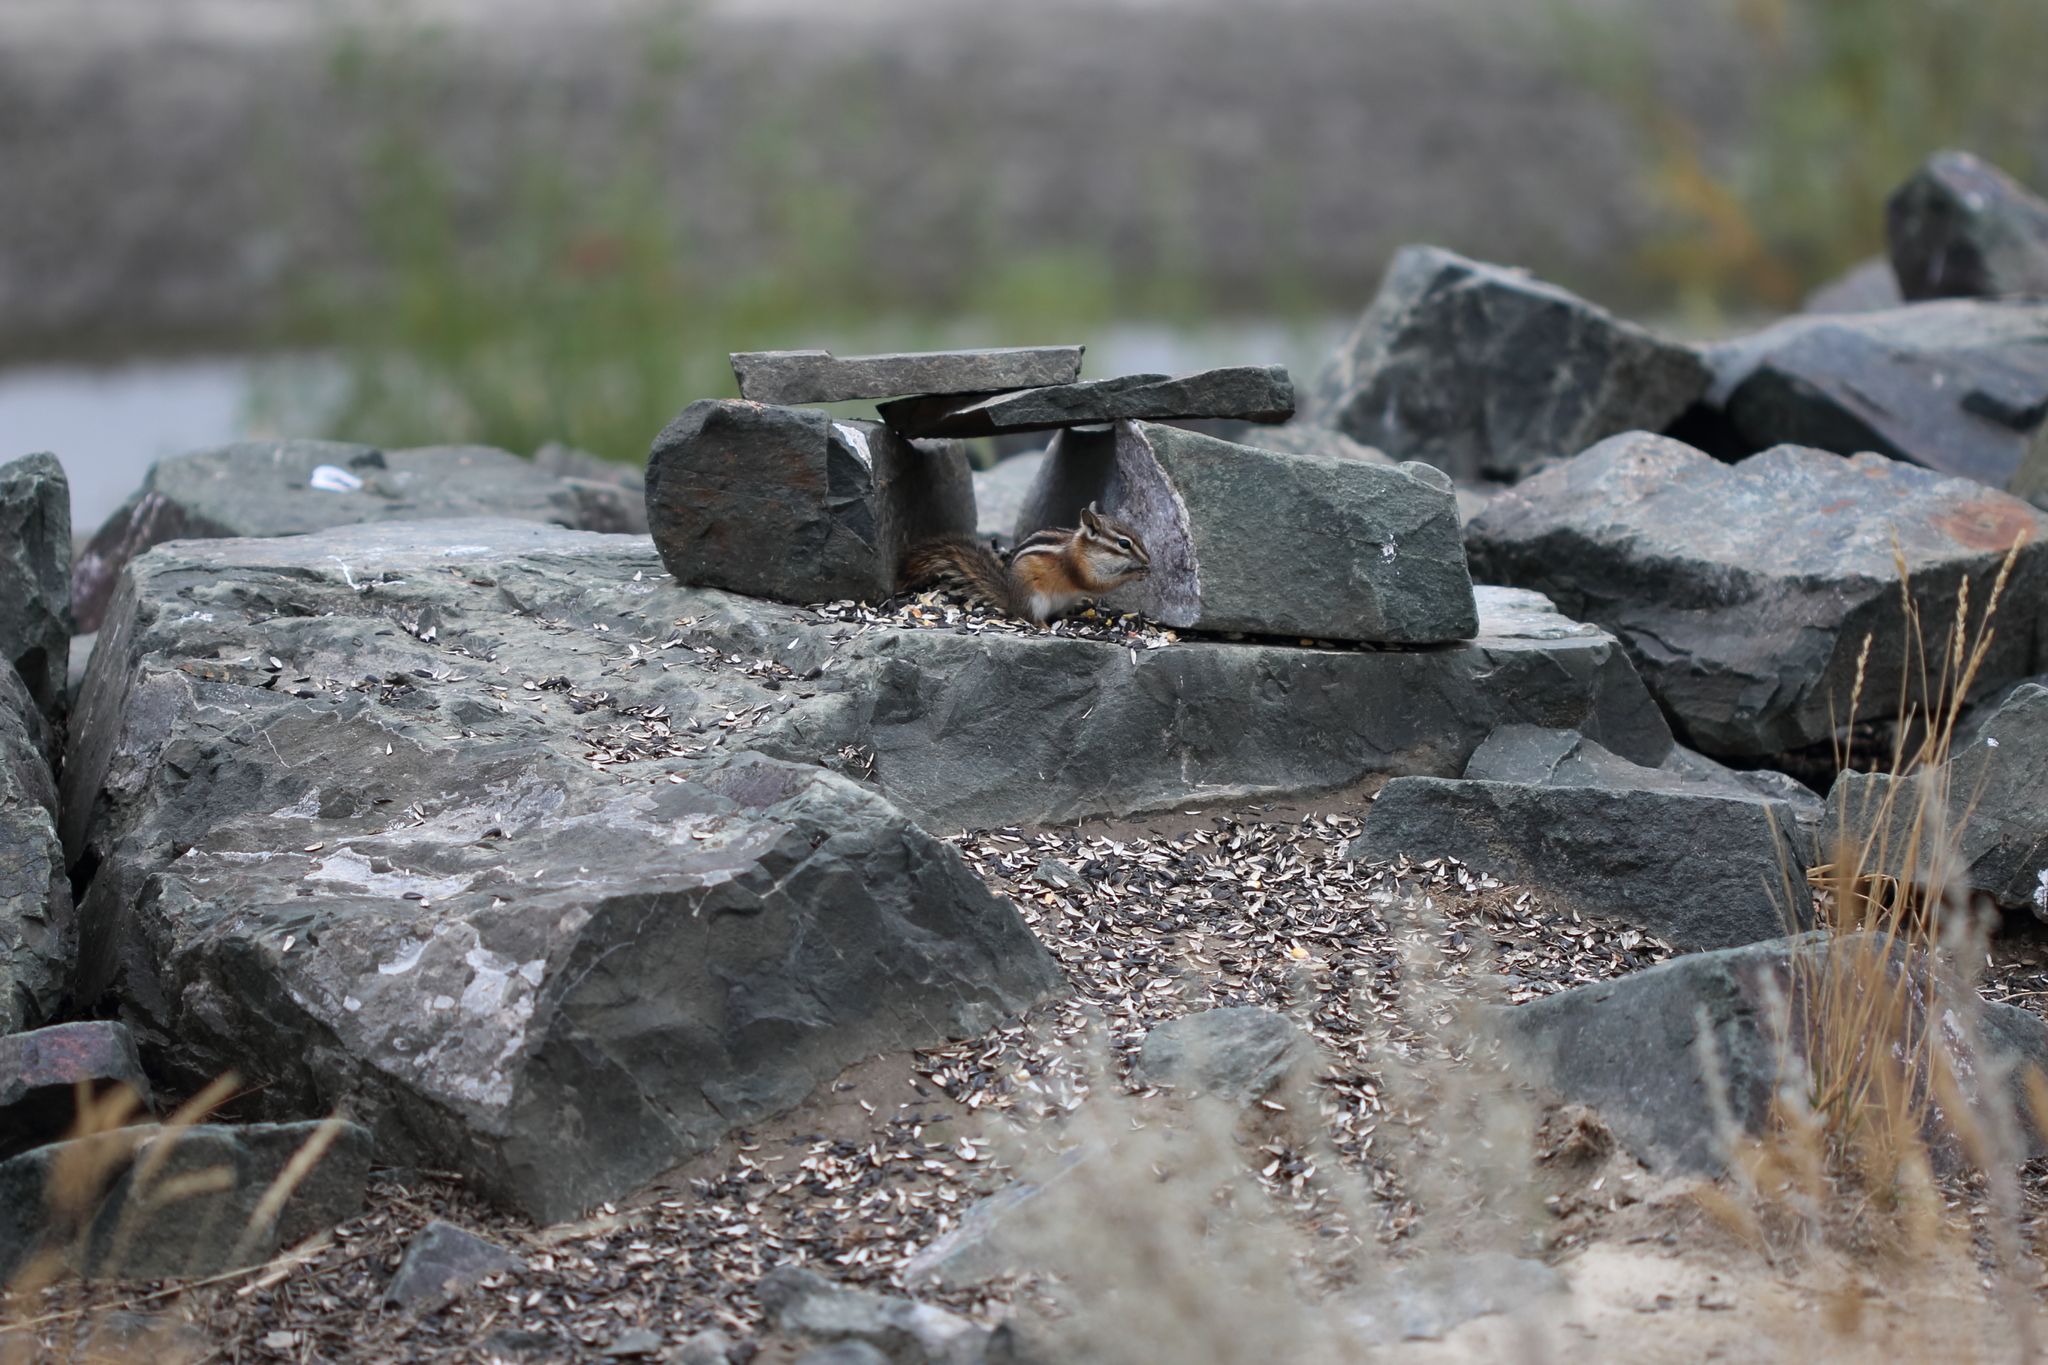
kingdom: Animalia
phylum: Chordata
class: Mammalia
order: Rodentia
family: Sciuridae
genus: Tamias
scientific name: Tamias amoenus
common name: Yellow-pine chipmunk
